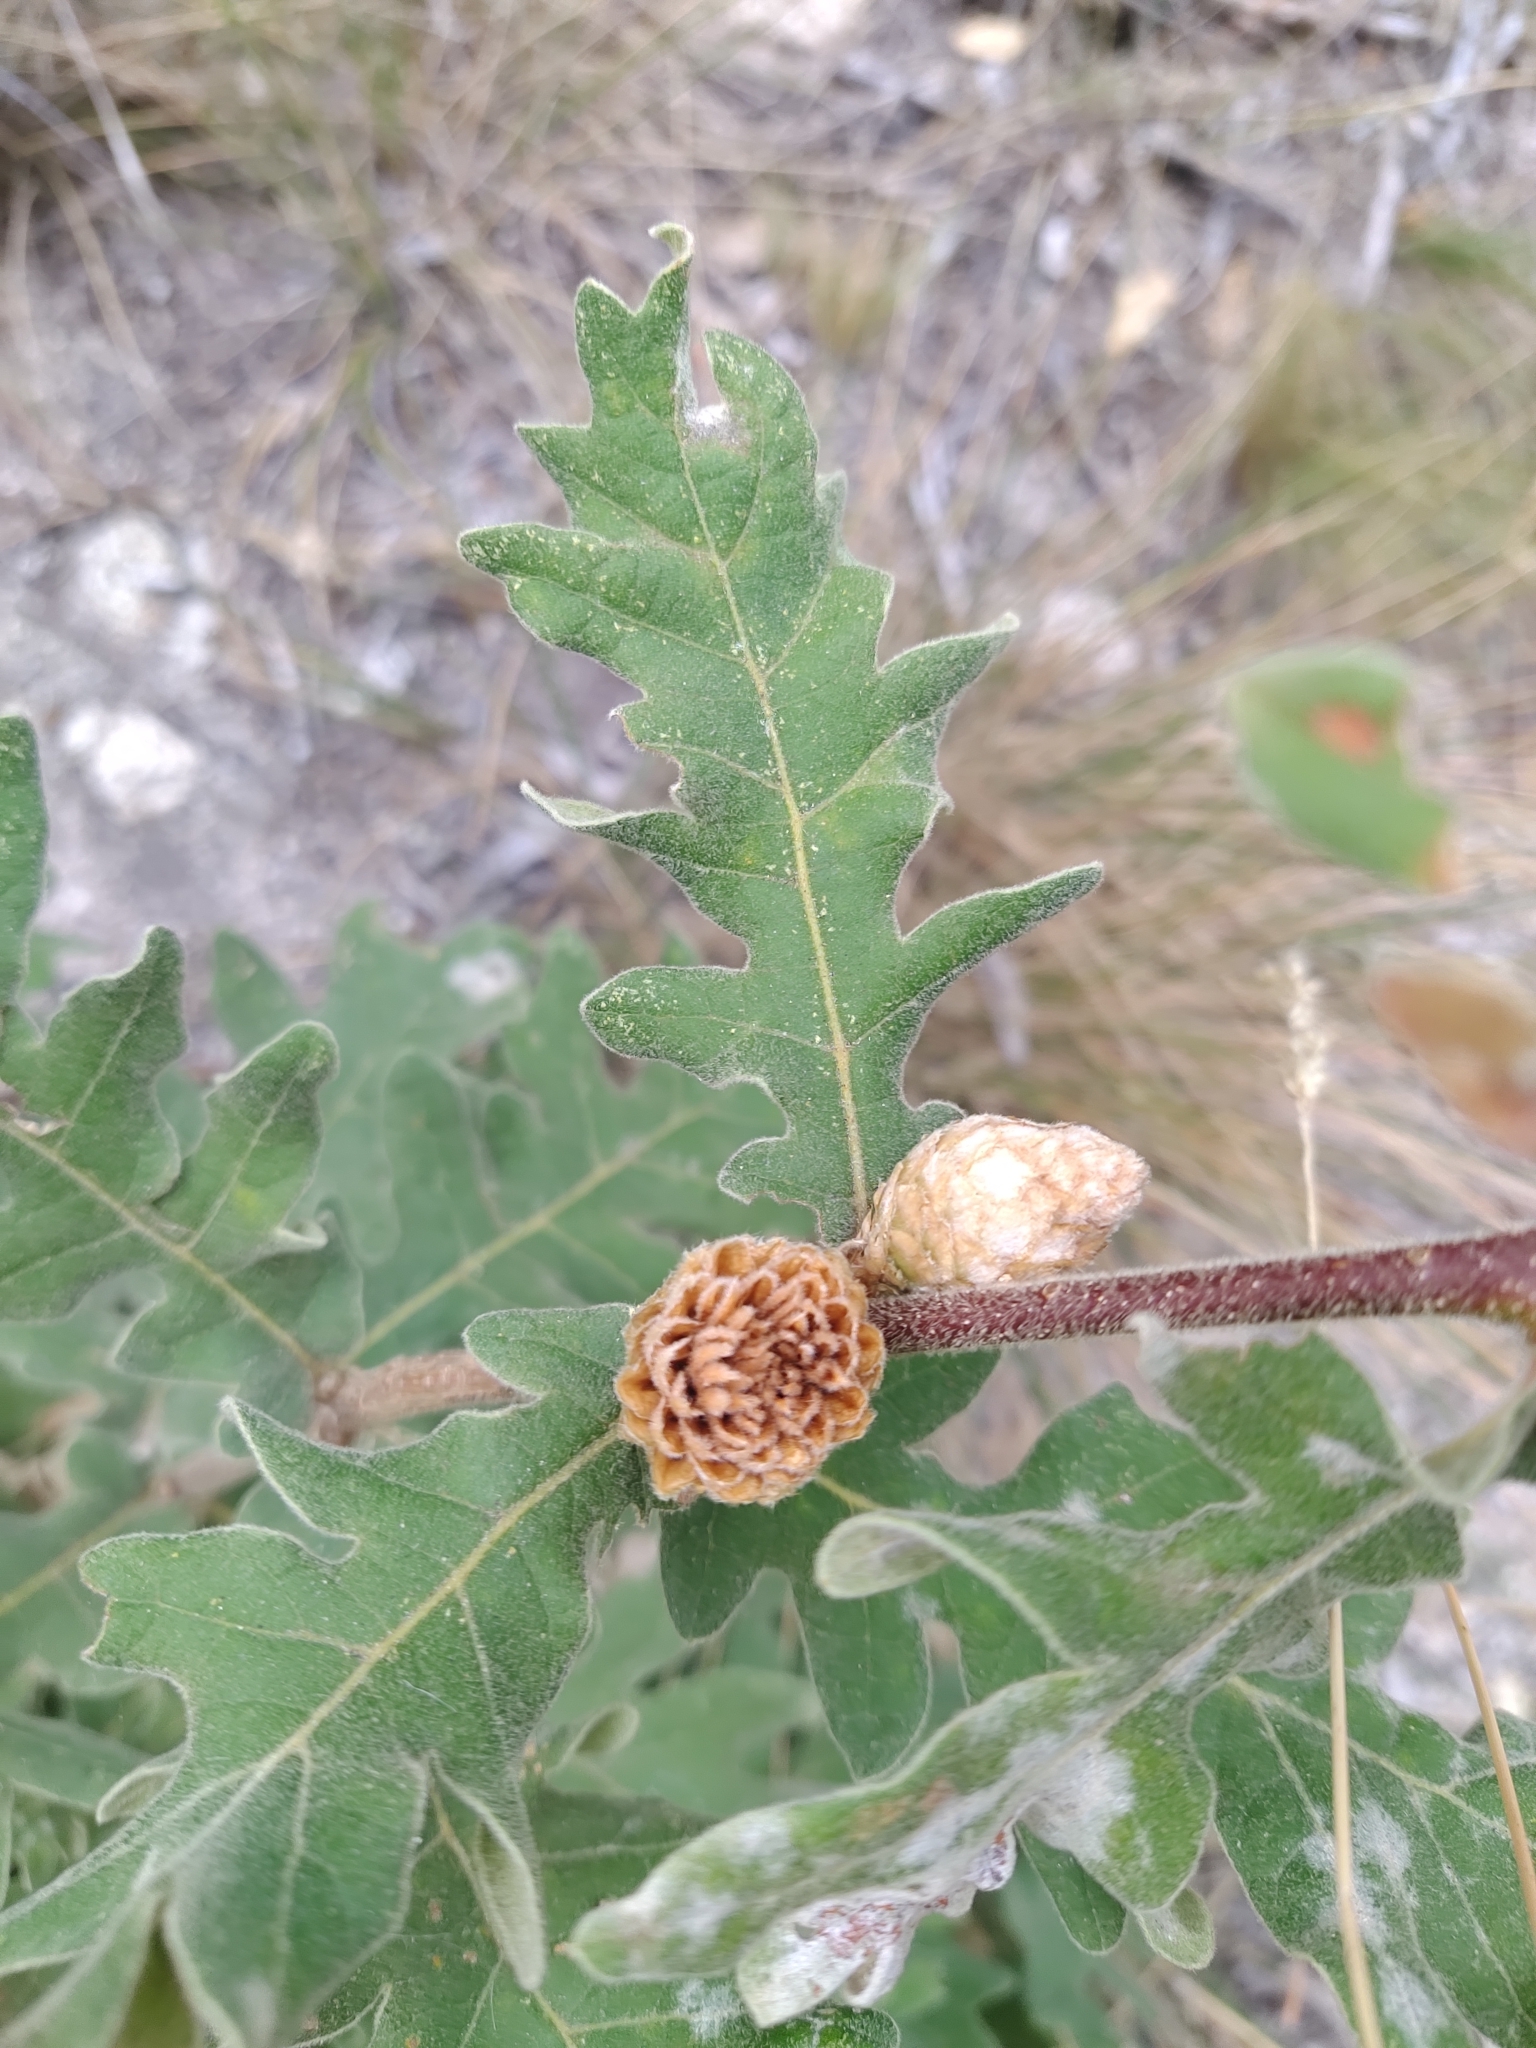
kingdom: Animalia
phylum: Arthropoda
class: Insecta
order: Hymenoptera
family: Cynipidae
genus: Andricus
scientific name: Andricus foecundatrix
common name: Artichoke gall
